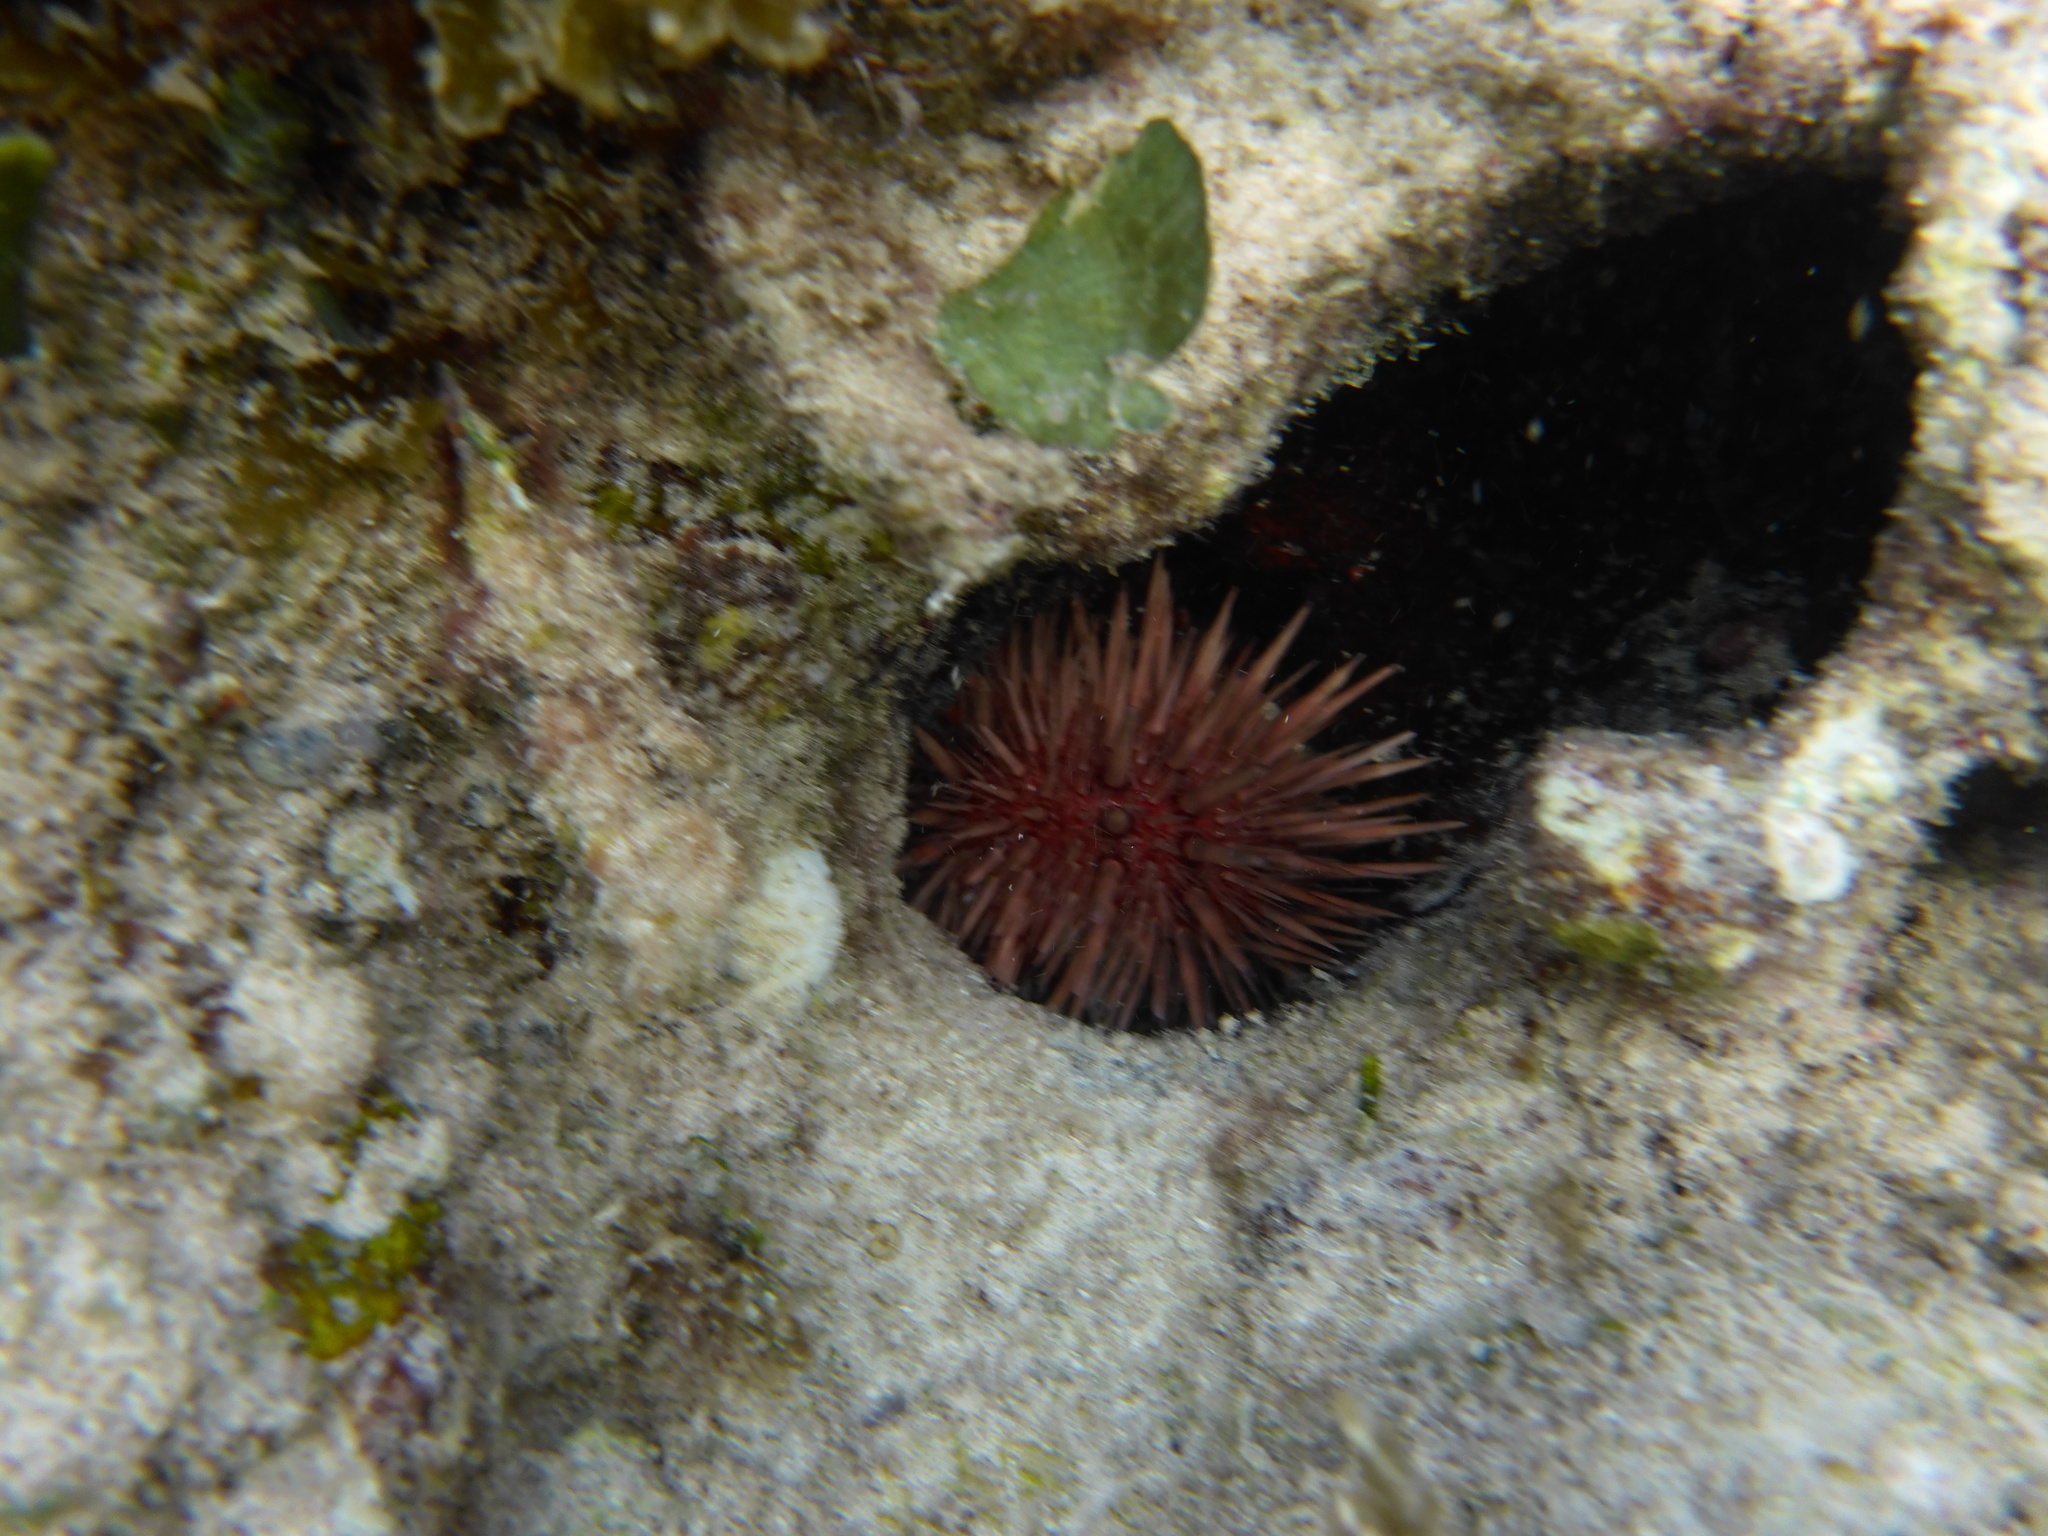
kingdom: Animalia
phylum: Echinodermata
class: Echinoidea
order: Camarodonta
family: Echinometridae
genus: Echinometra
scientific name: Echinometra lucunter
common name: Rock urchin
